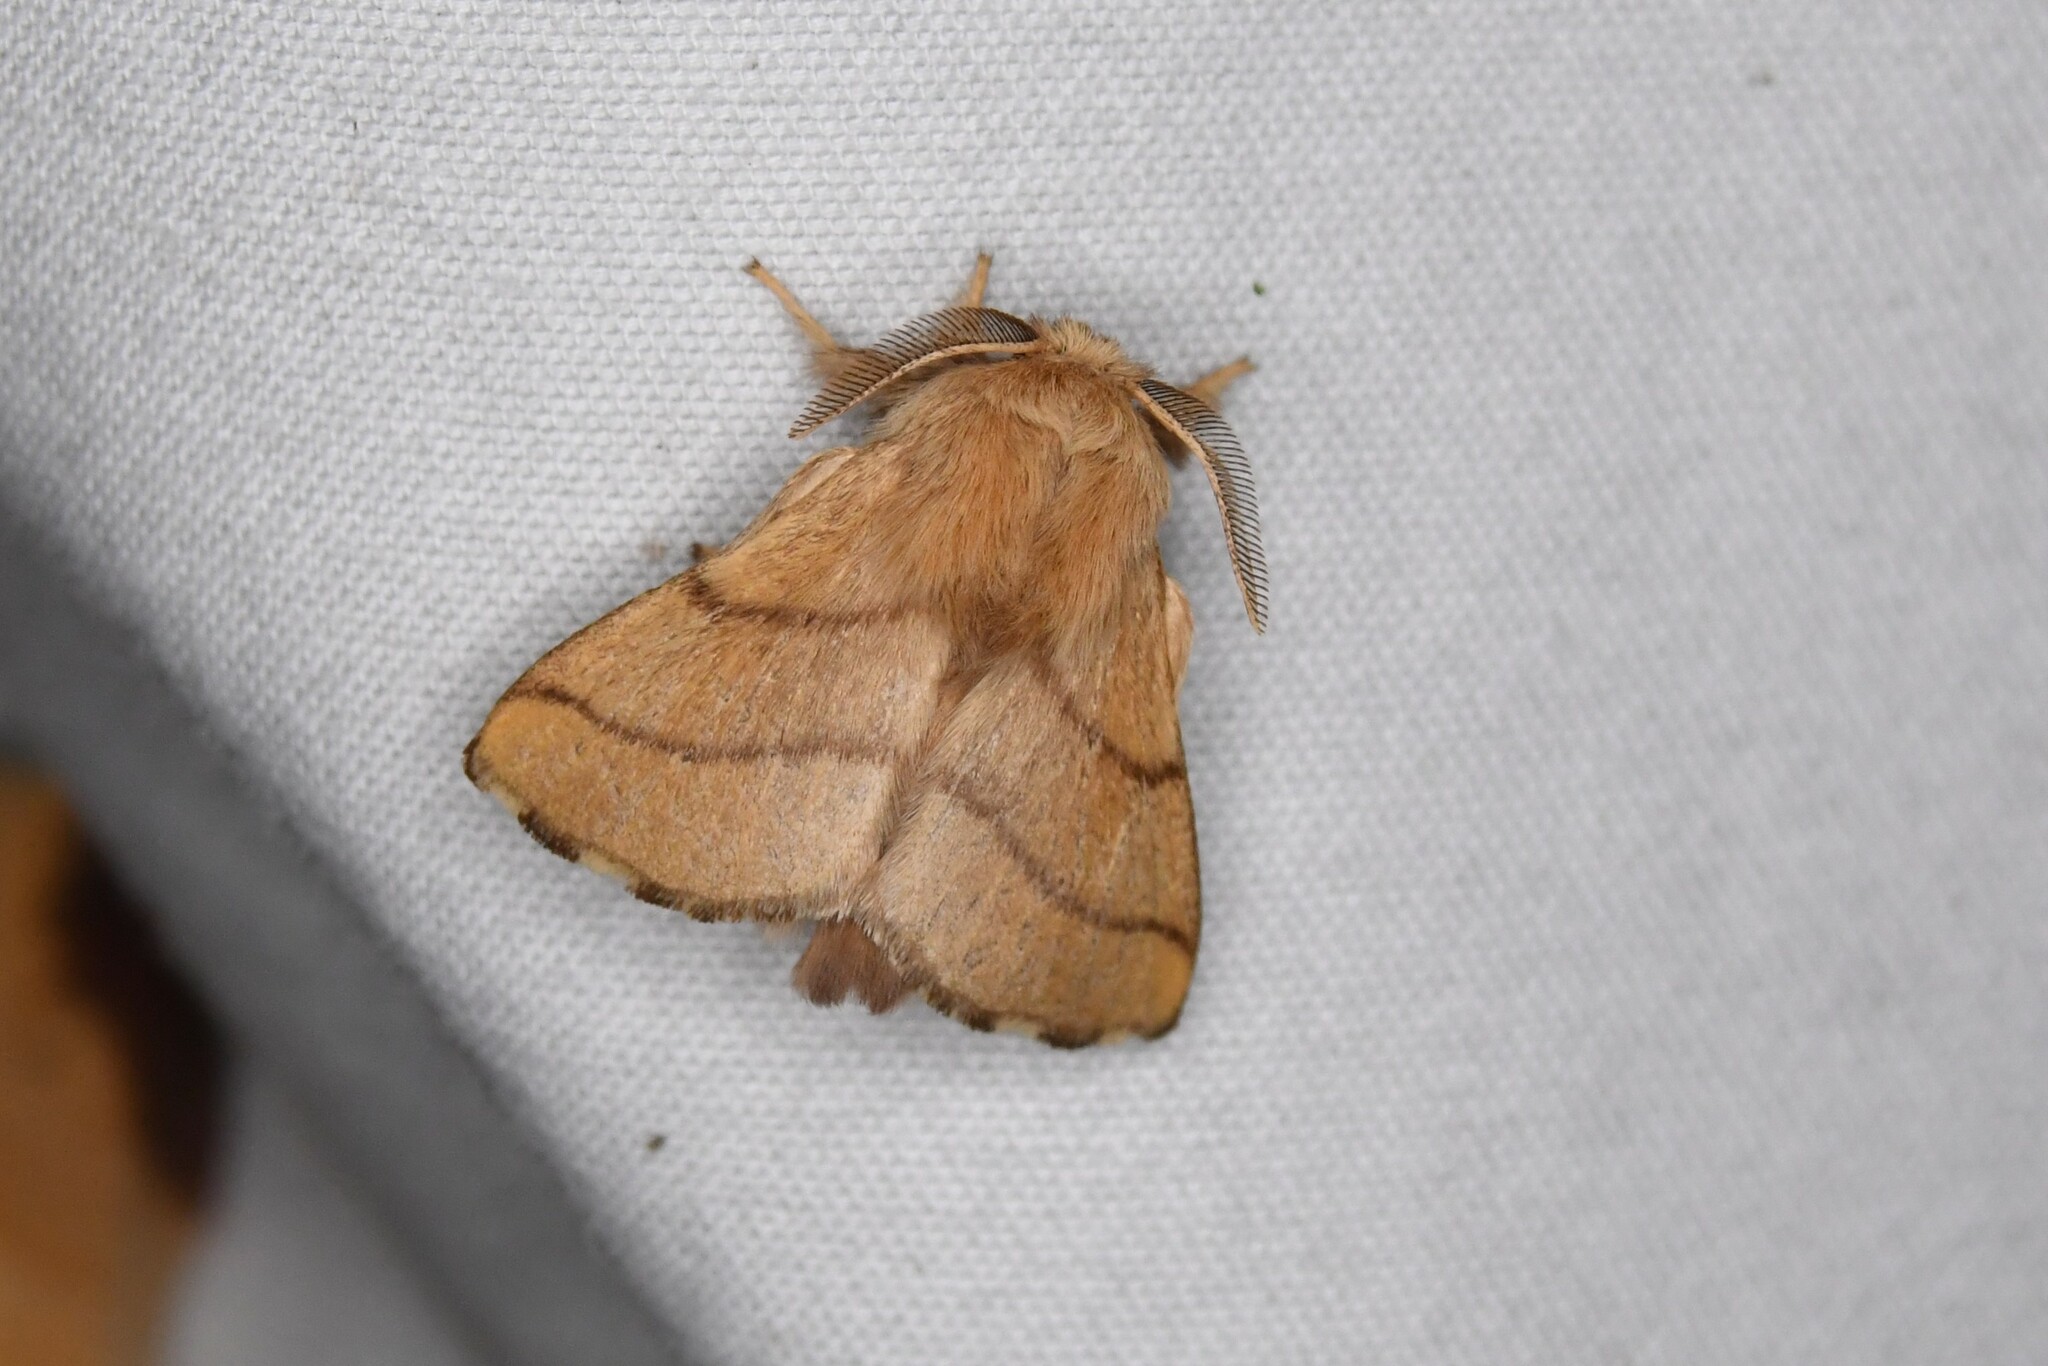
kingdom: Animalia
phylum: Arthropoda
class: Insecta
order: Lepidoptera
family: Lasiocampidae
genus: Malacosoma
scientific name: Malacosoma disstria
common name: Forest tent caterpillar
